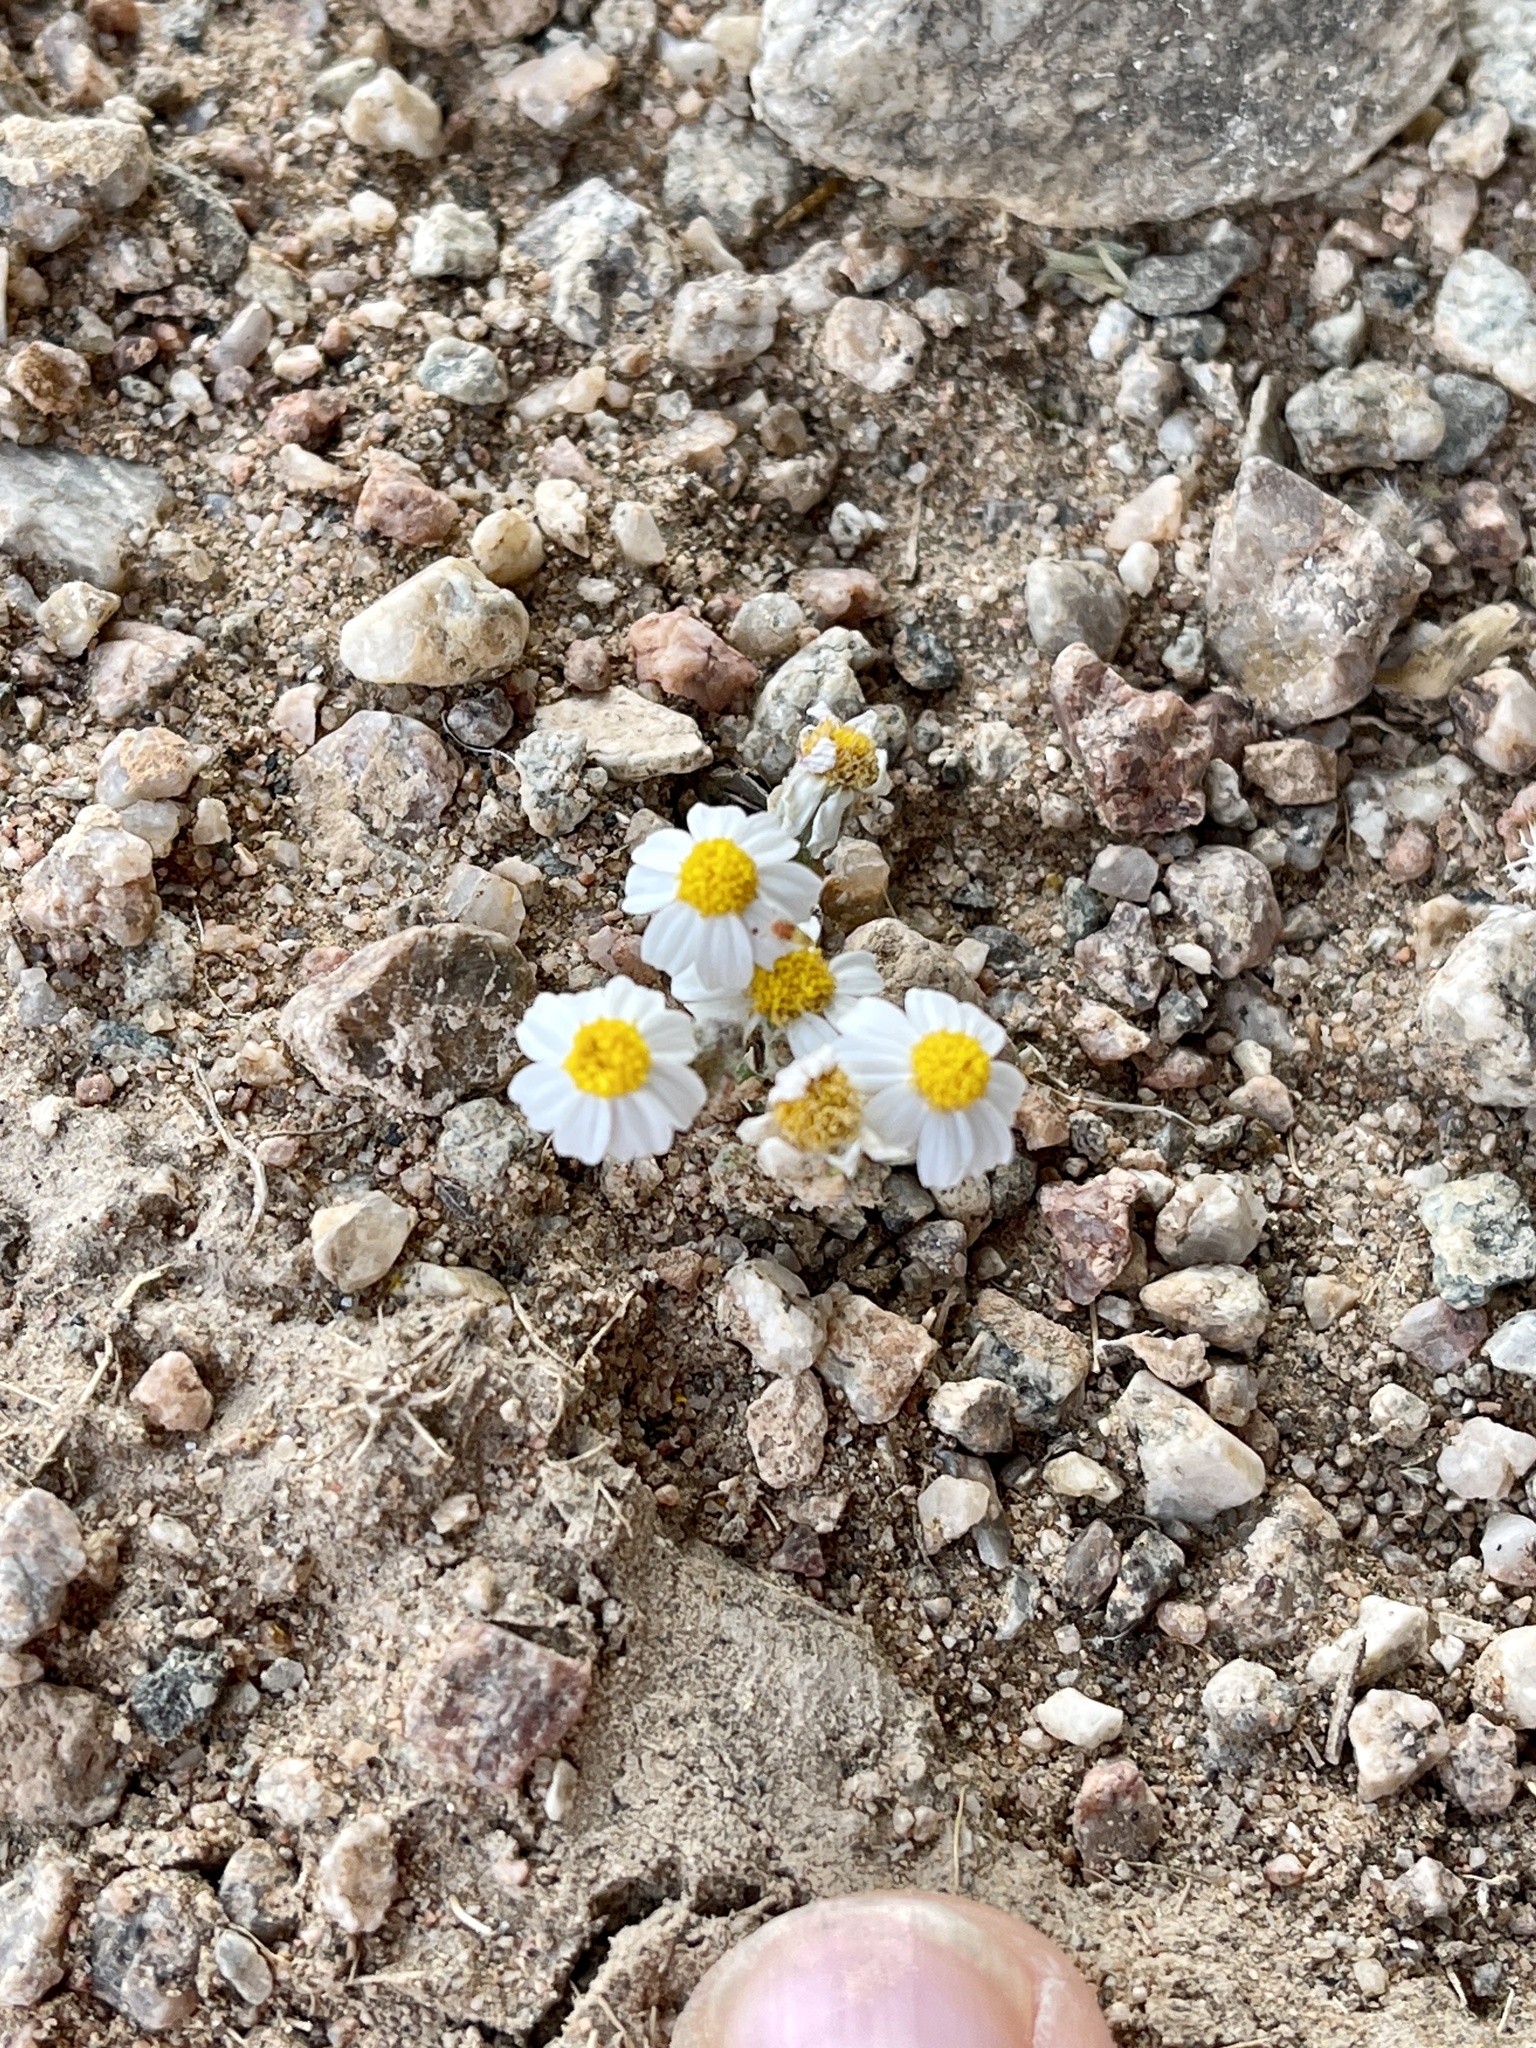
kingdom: Plantae
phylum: Tracheophyta
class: Magnoliopsida
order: Asterales
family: Asteraceae
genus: Eriophyllum
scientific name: Eriophyllum lanosum
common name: White easter-bonnets
